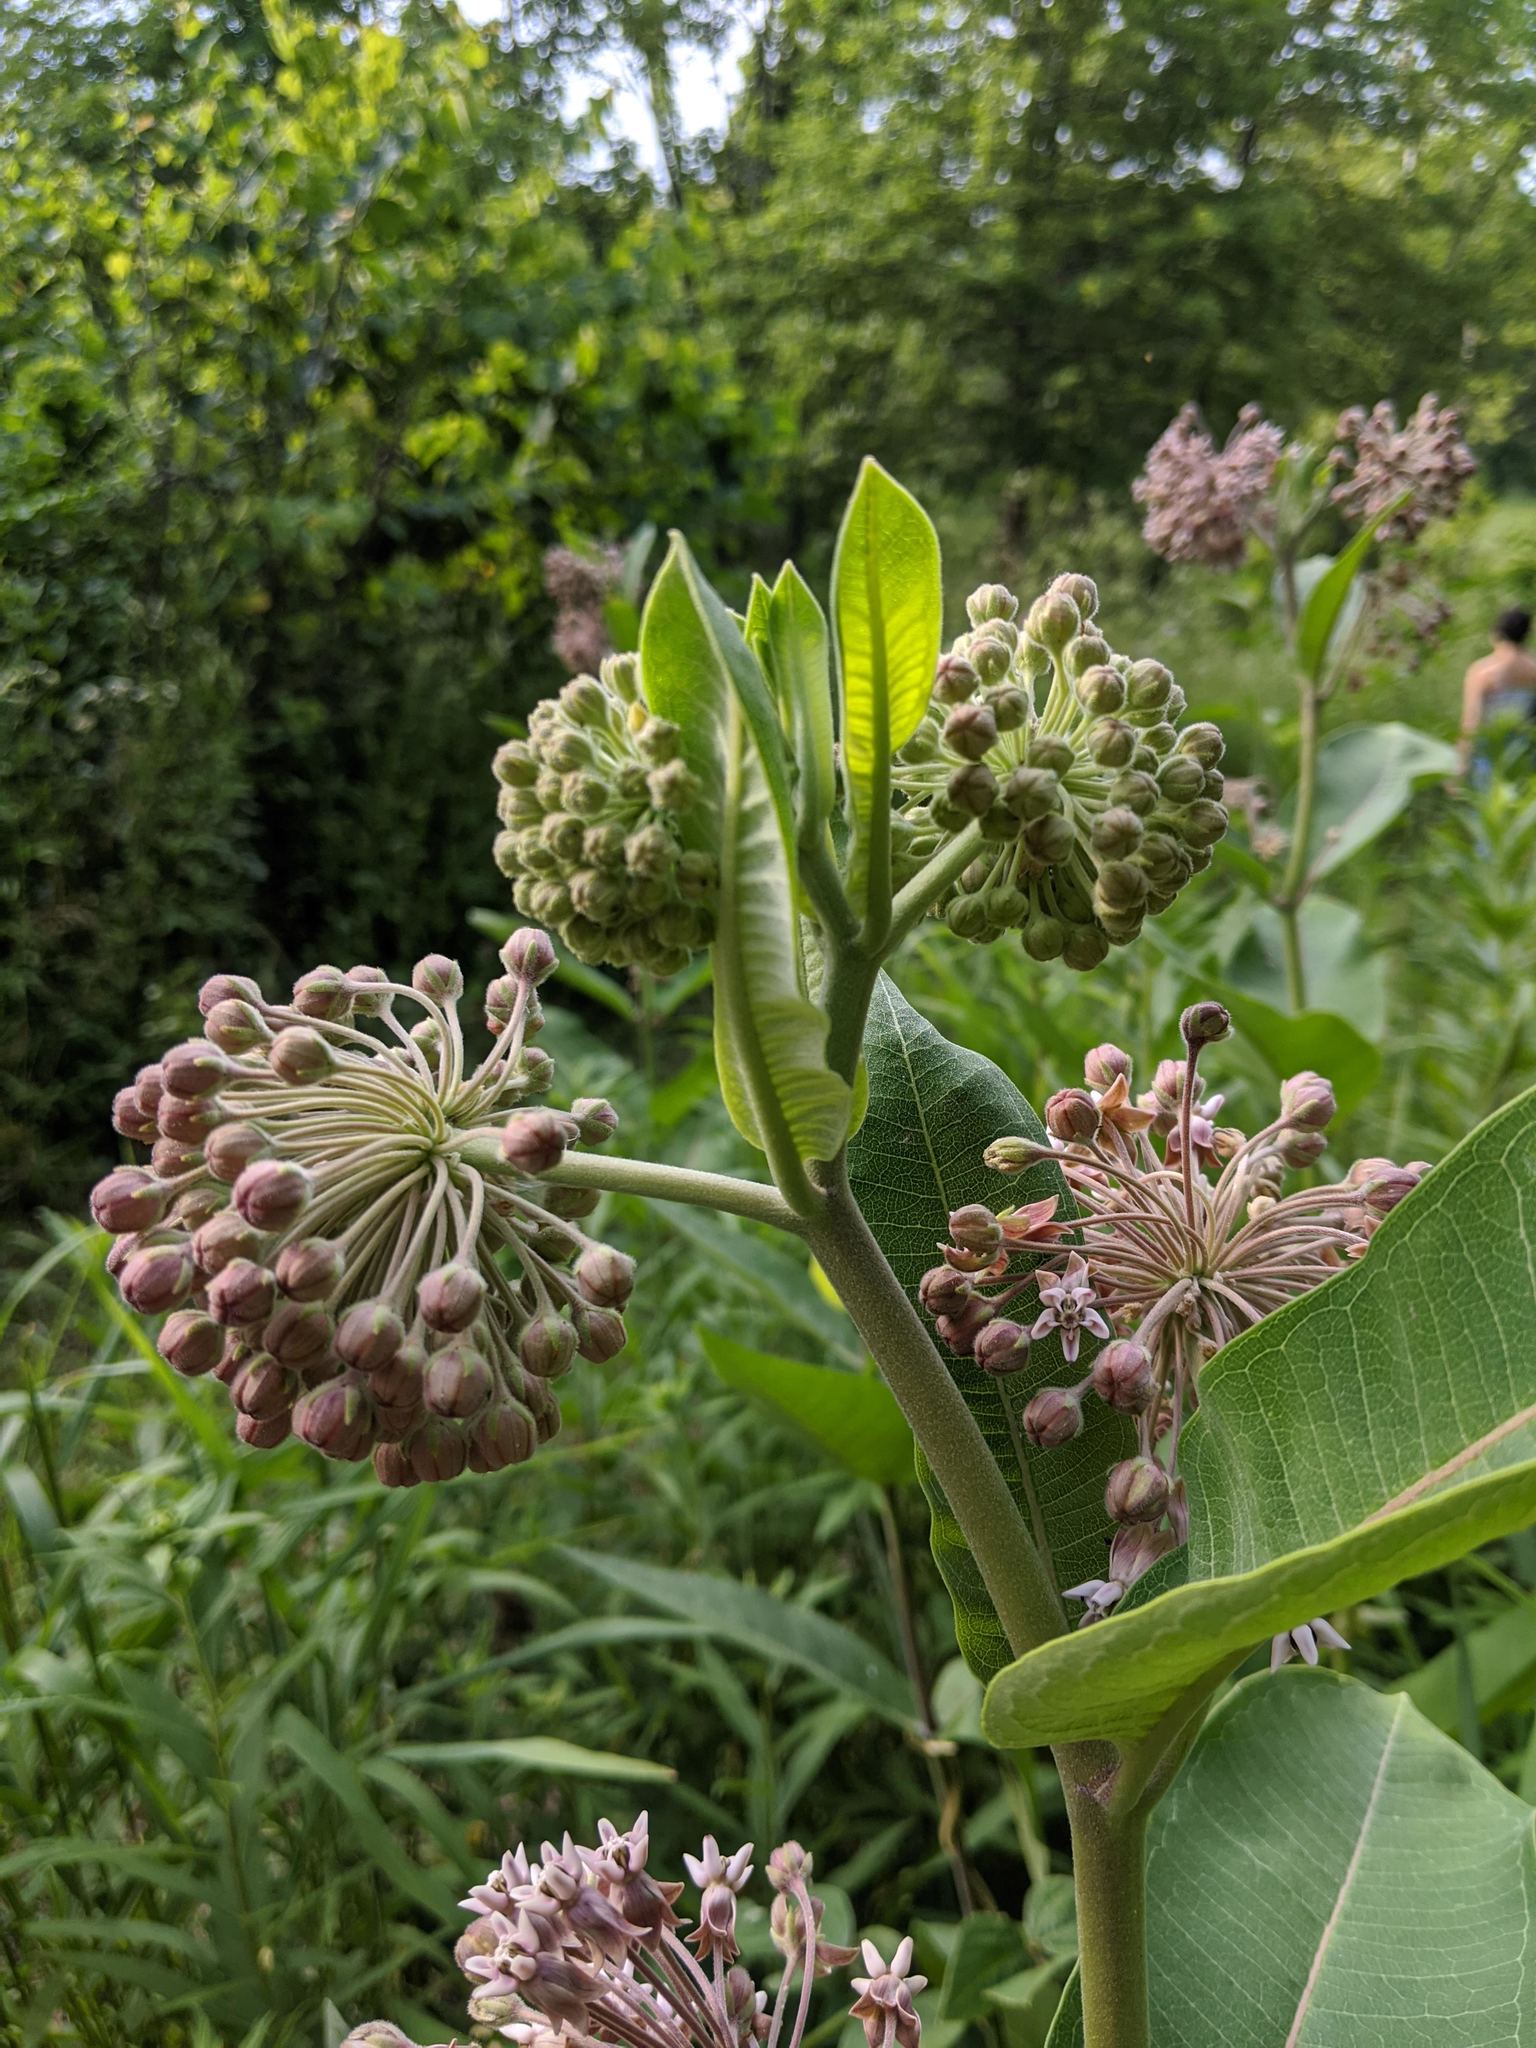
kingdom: Plantae
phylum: Tracheophyta
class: Magnoliopsida
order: Gentianales
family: Apocynaceae
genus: Asclepias
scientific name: Asclepias syriaca
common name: Common milkweed
